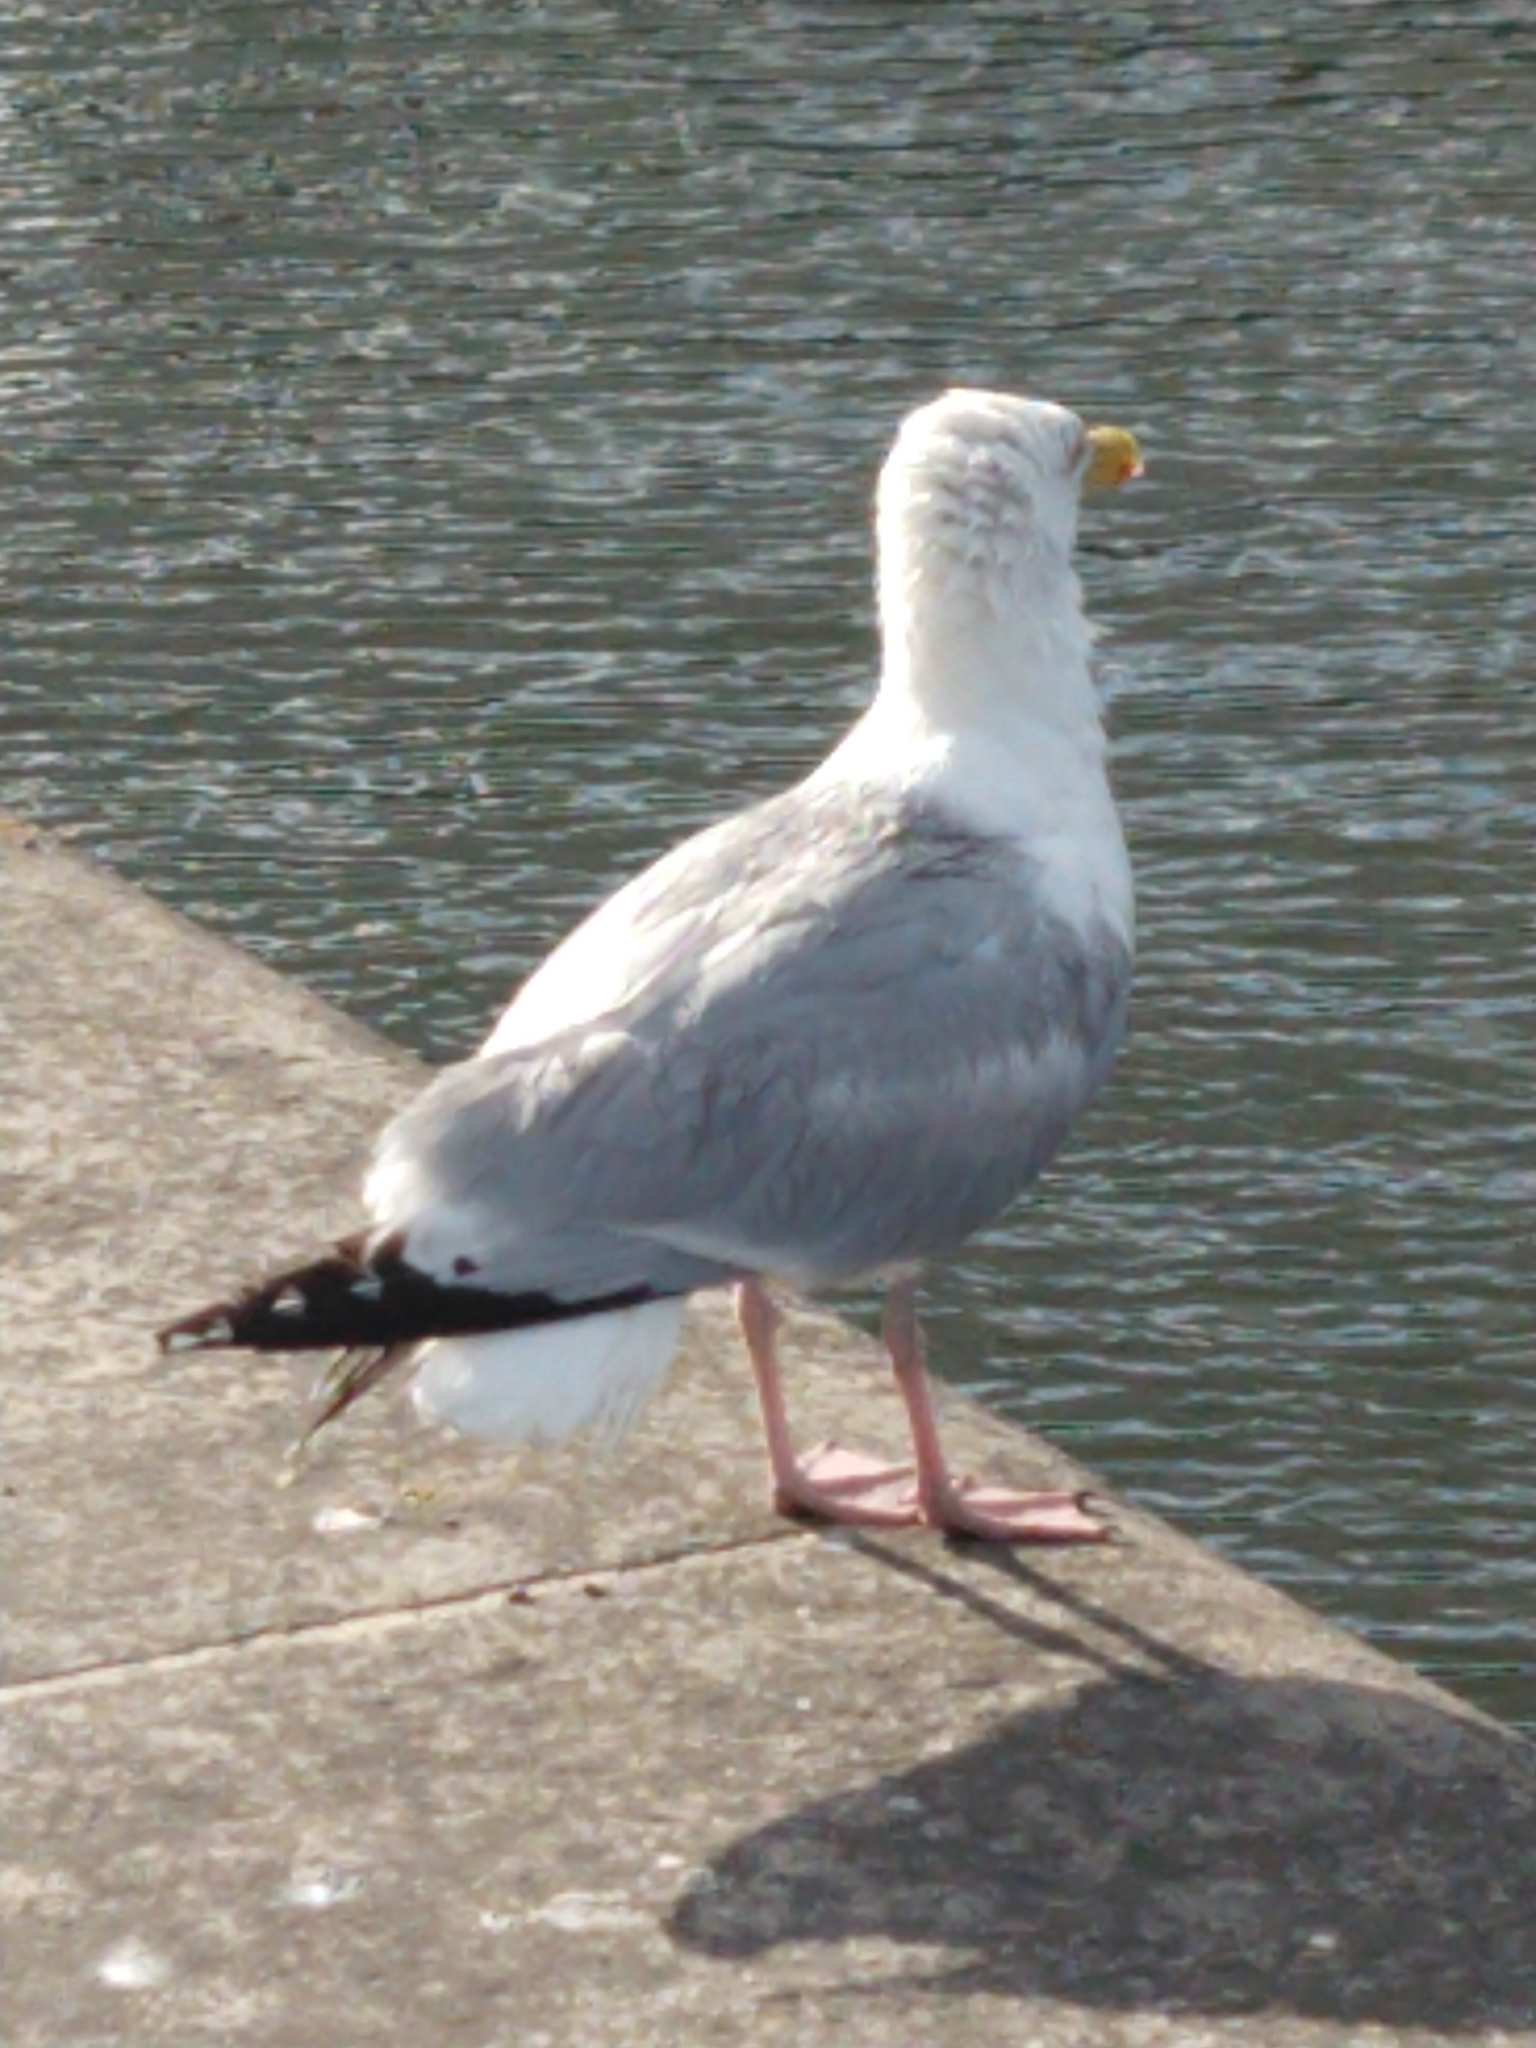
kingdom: Animalia
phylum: Chordata
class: Aves
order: Charadriiformes
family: Laridae
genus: Larus
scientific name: Larus argentatus
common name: Herring gull
